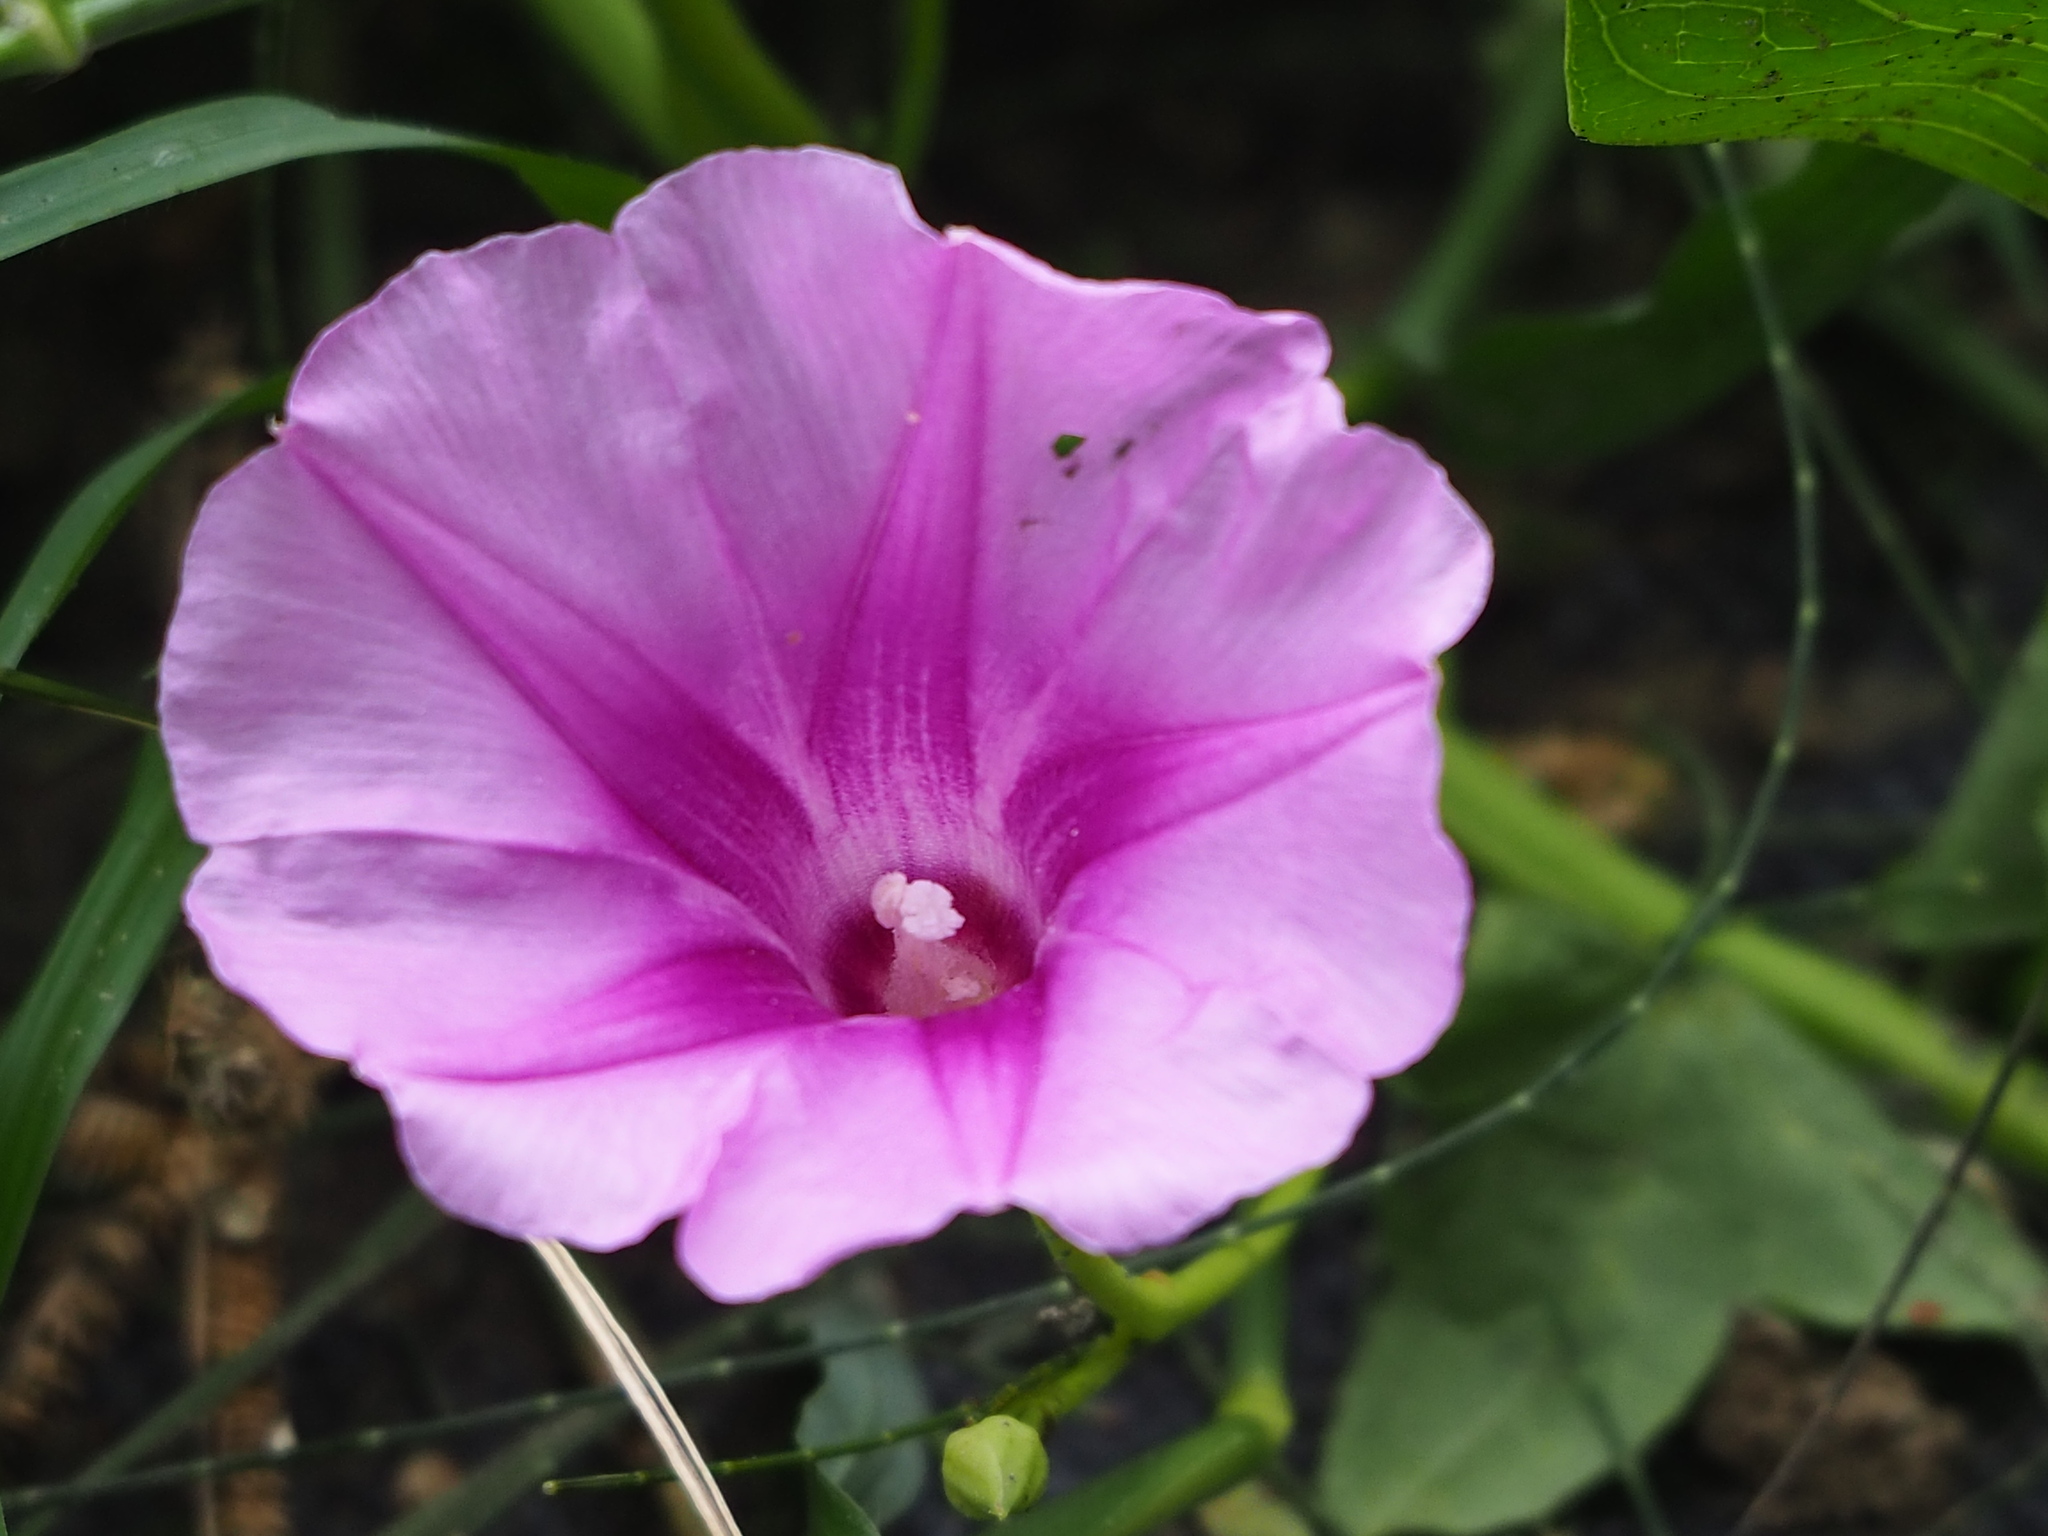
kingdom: Plantae
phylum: Tracheophyta
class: Magnoliopsida
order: Solanales
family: Convolvulaceae
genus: Ipomoea
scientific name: Ipomoea pes-caprae
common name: Beach morning glory
